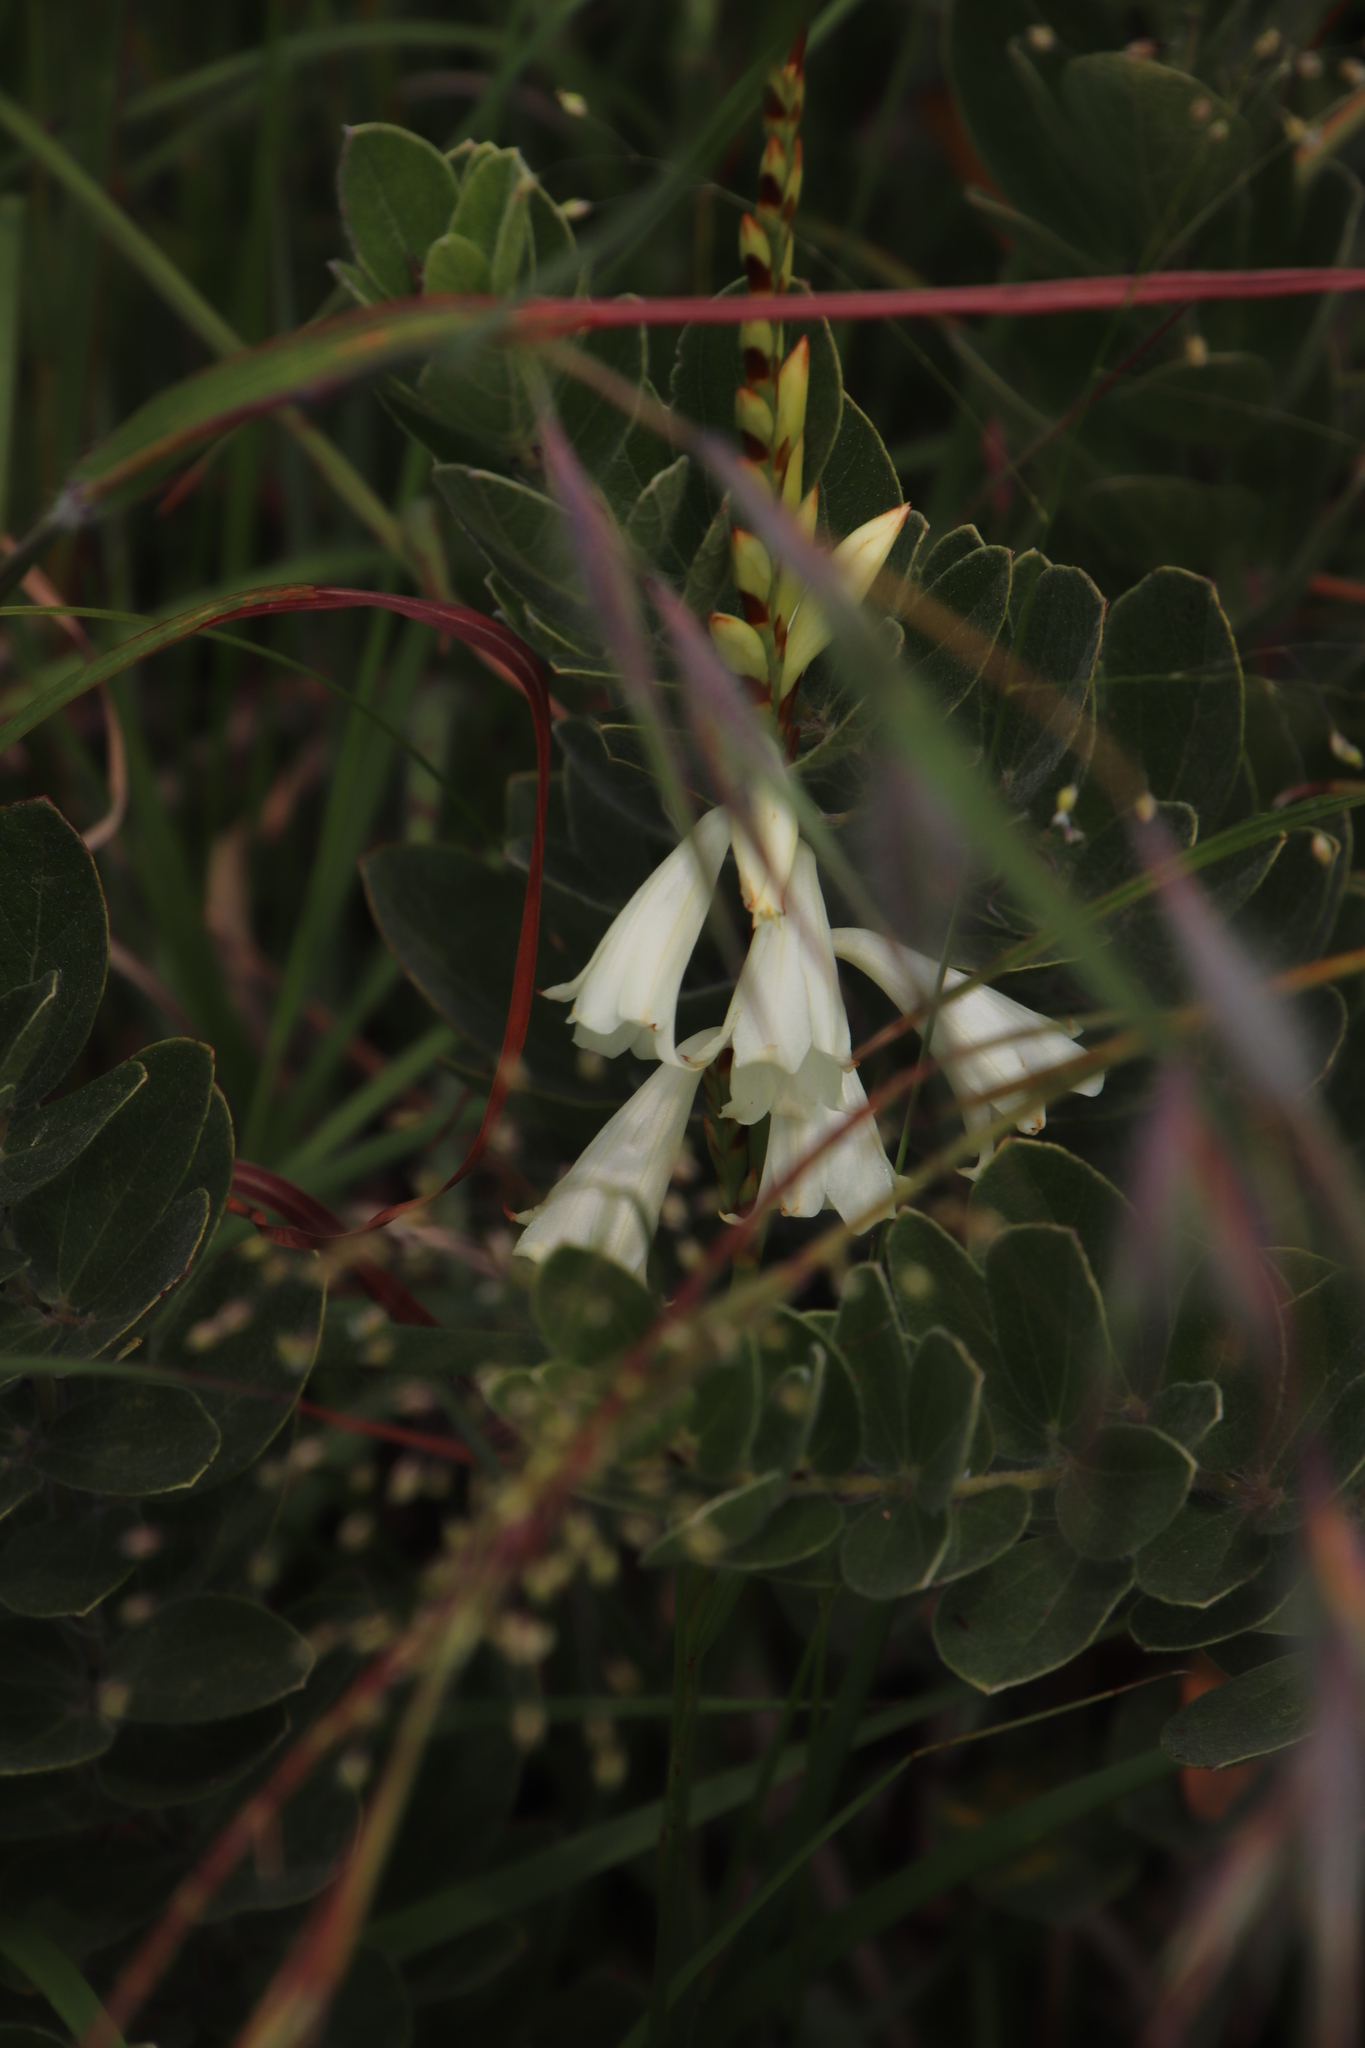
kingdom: Plantae
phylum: Tracheophyta
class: Liliopsida
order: Asparagales
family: Iridaceae
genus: Watsonia
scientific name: Watsonia watsonioides
